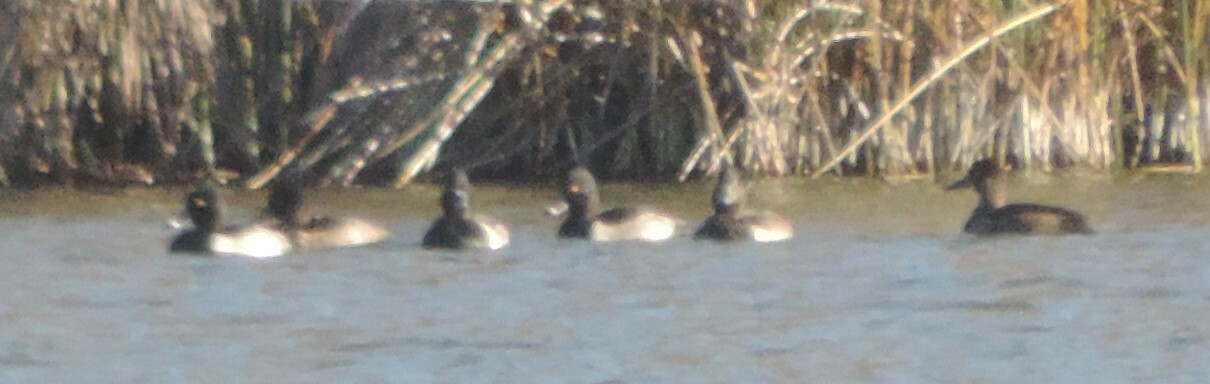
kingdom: Animalia
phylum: Chordata
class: Aves
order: Anseriformes
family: Anatidae
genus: Aythya
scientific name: Aythya collaris
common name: Ring-necked duck
